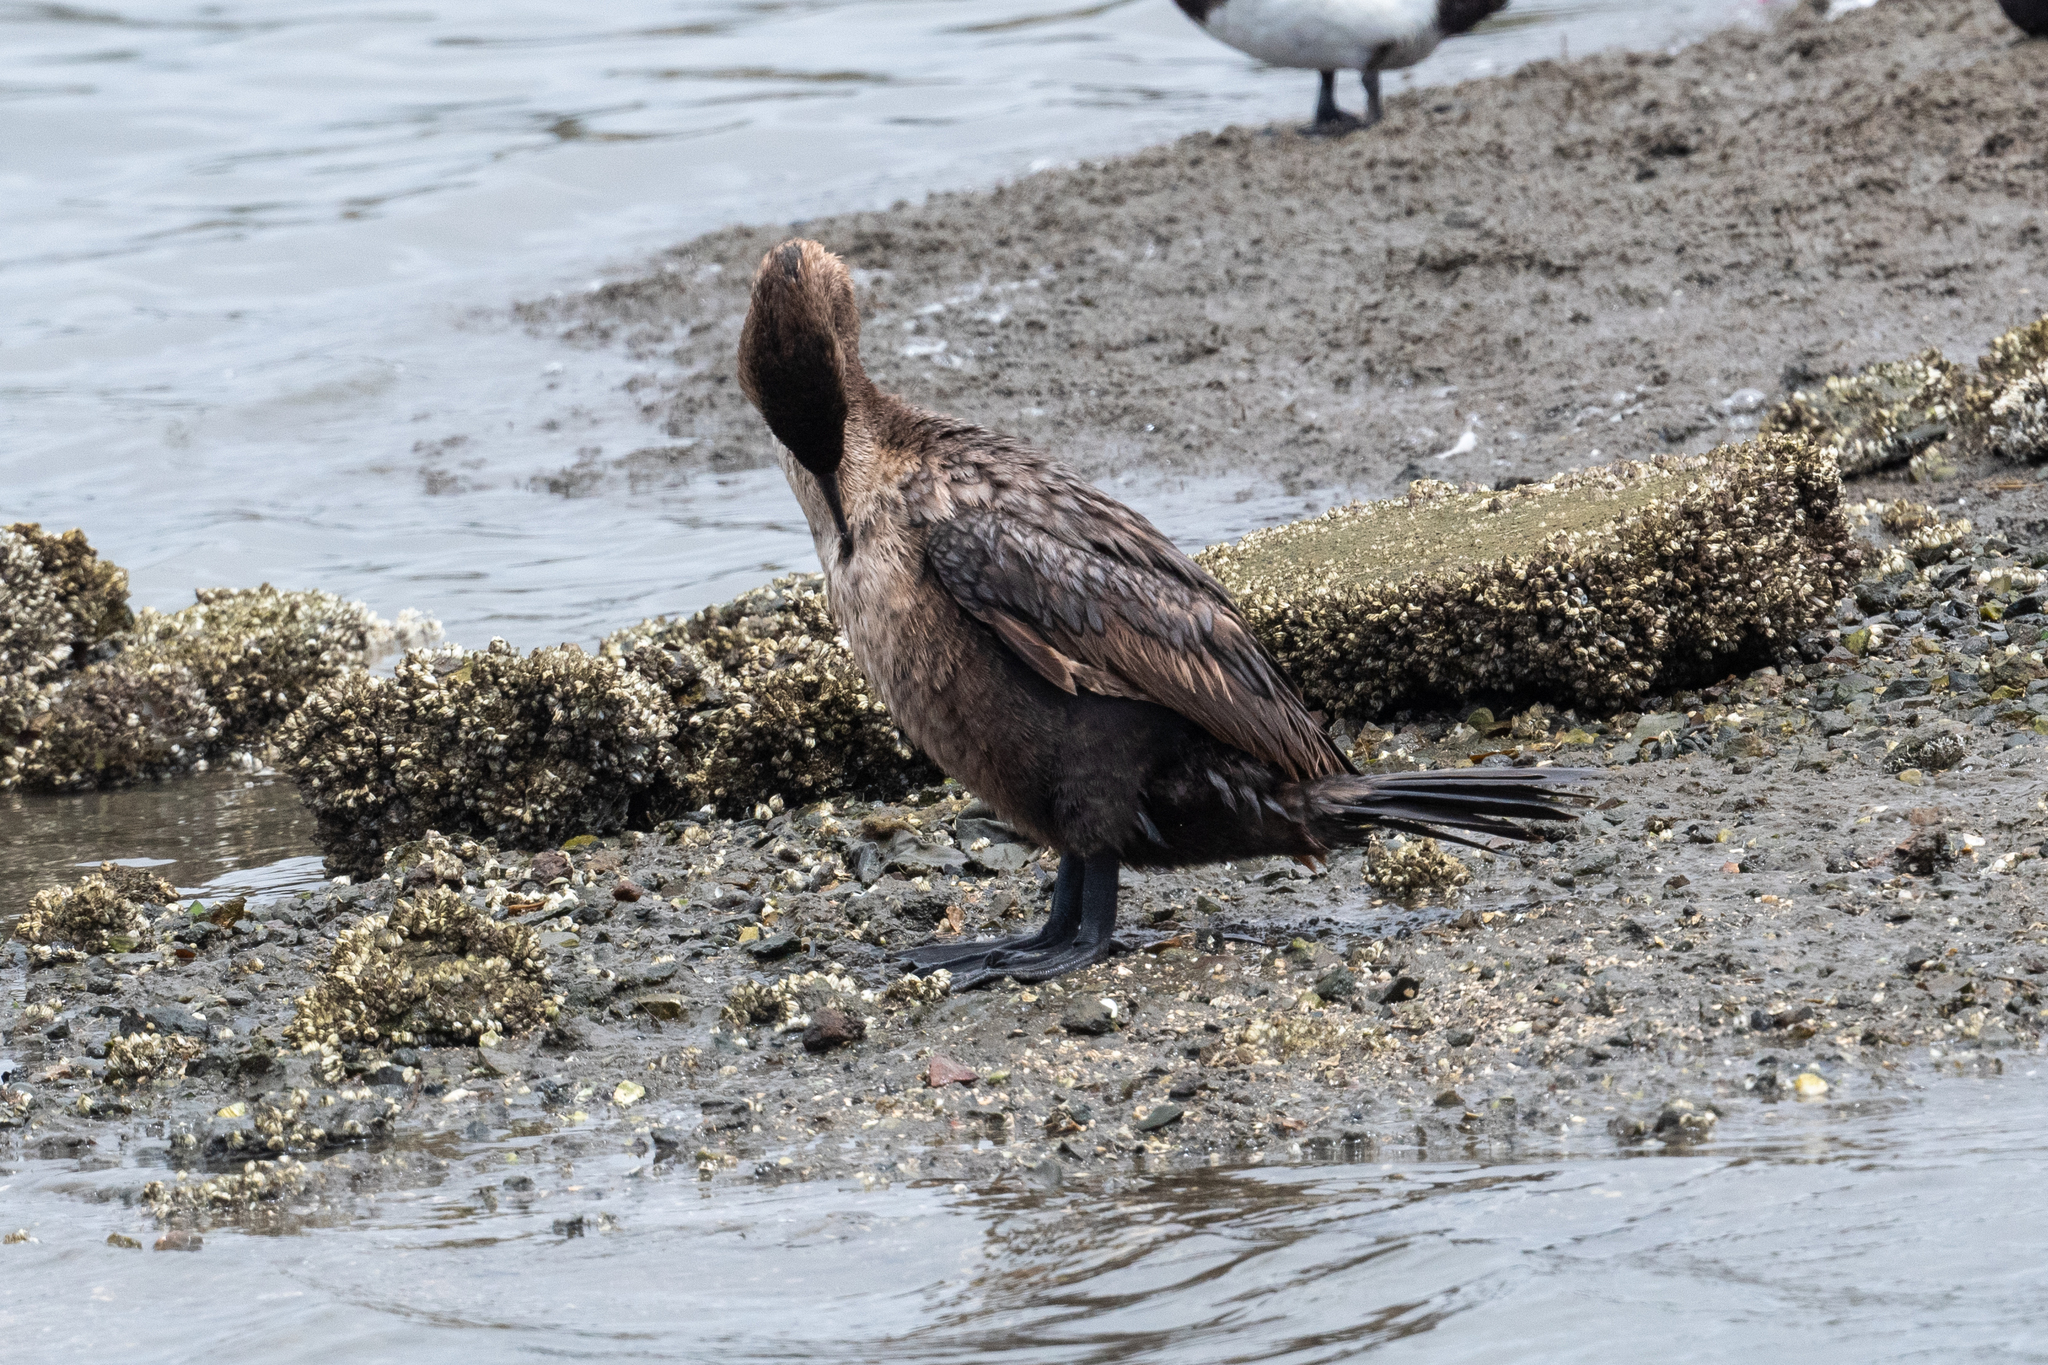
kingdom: Animalia
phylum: Chordata
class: Aves
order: Suliformes
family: Phalacrocoracidae
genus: Phalacrocorax
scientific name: Phalacrocorax auritus
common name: Double-crested cormorant
